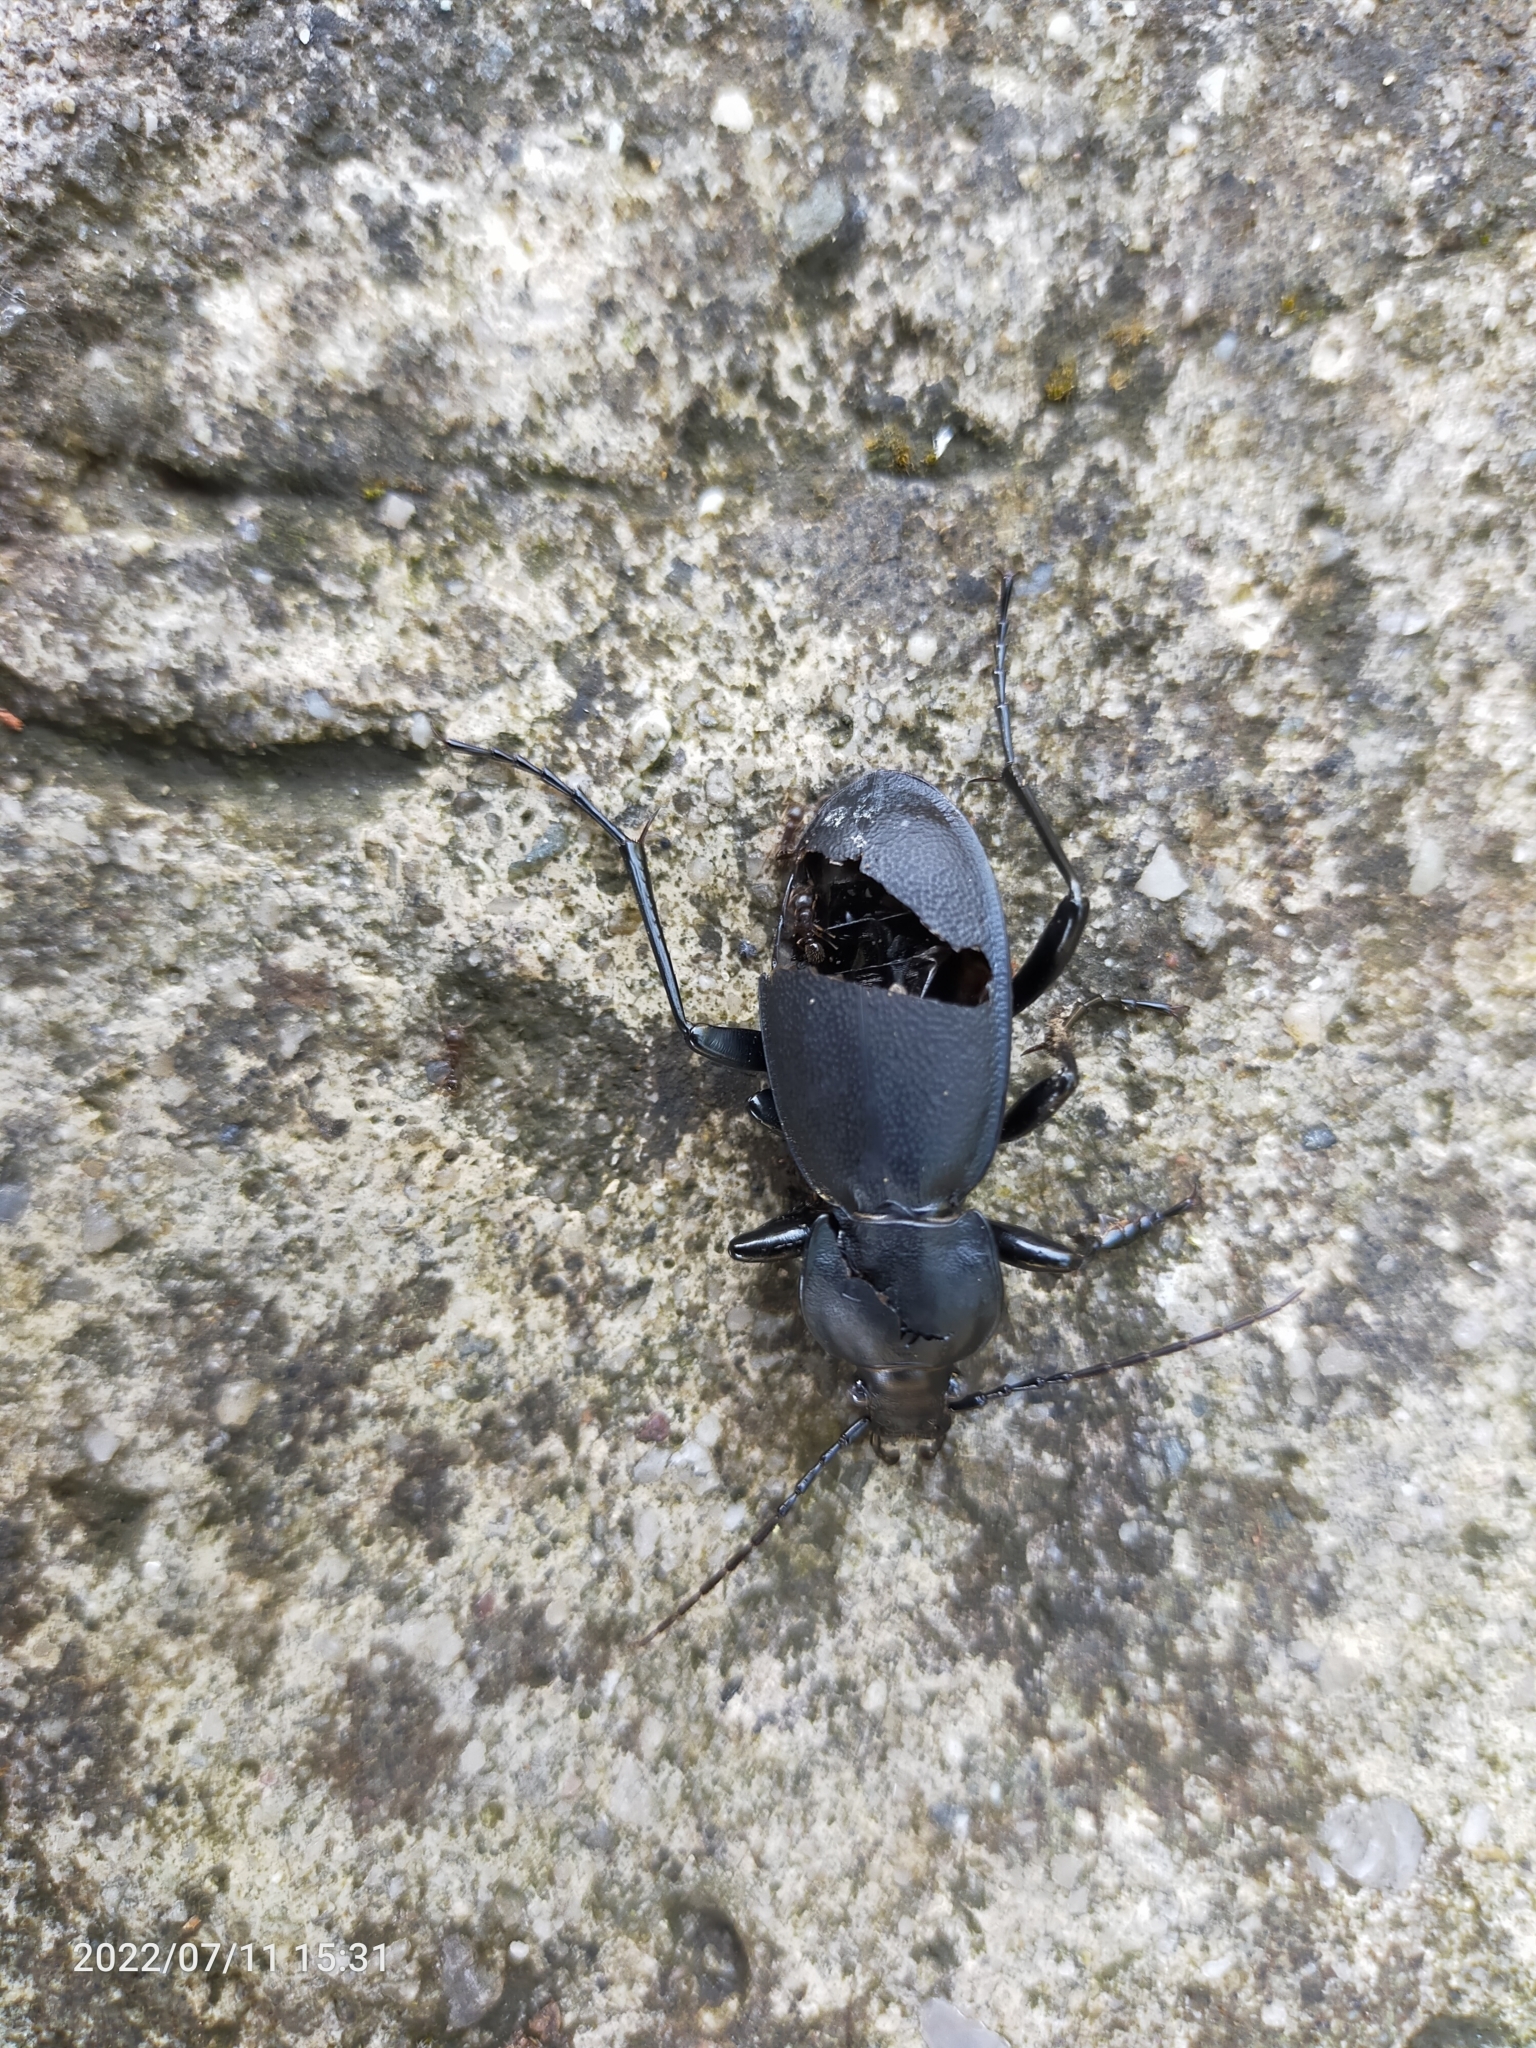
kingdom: Animalia
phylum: Arthropoda
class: Insecta
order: Coleoptera
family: Carabidae
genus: Carabus
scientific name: Carabus coriaceus
